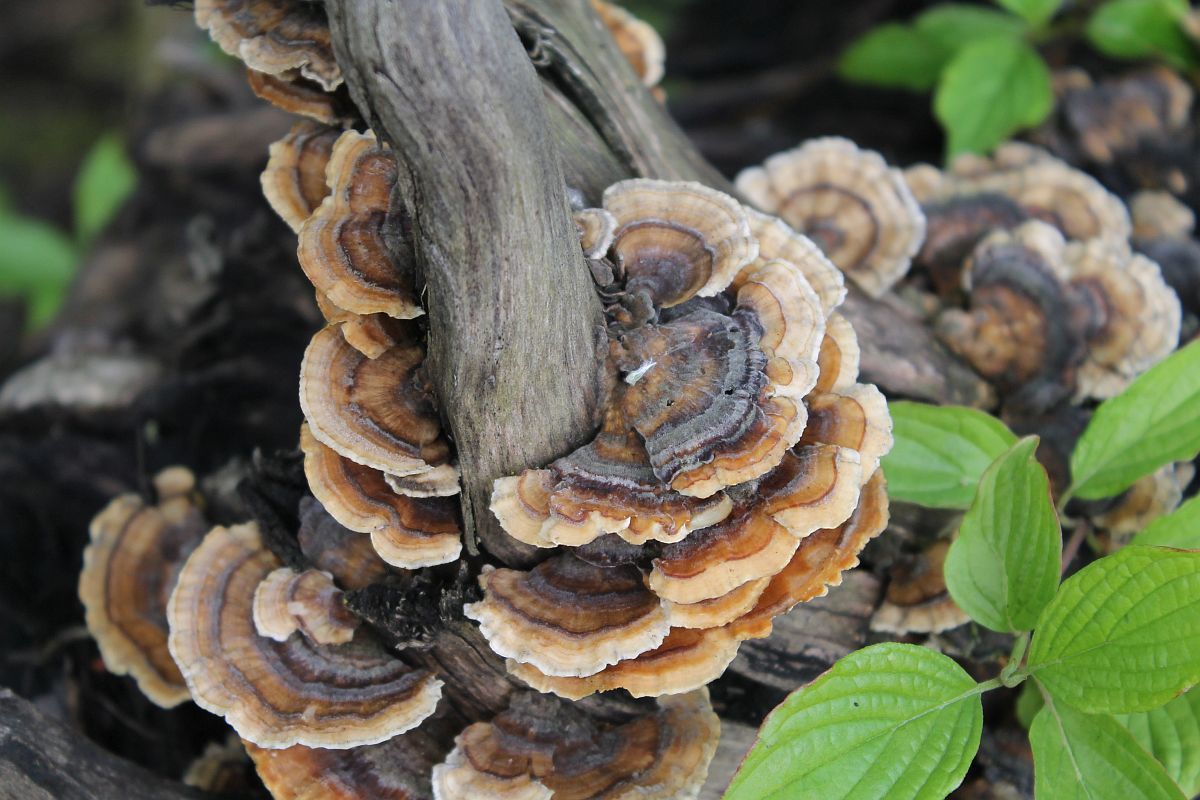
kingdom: Fungi
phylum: Basidiomycota
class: Agaricomycetes
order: Polyporales
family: Polyporaceae
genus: Trametes
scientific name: Trametes versicolor
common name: Turkeytail
